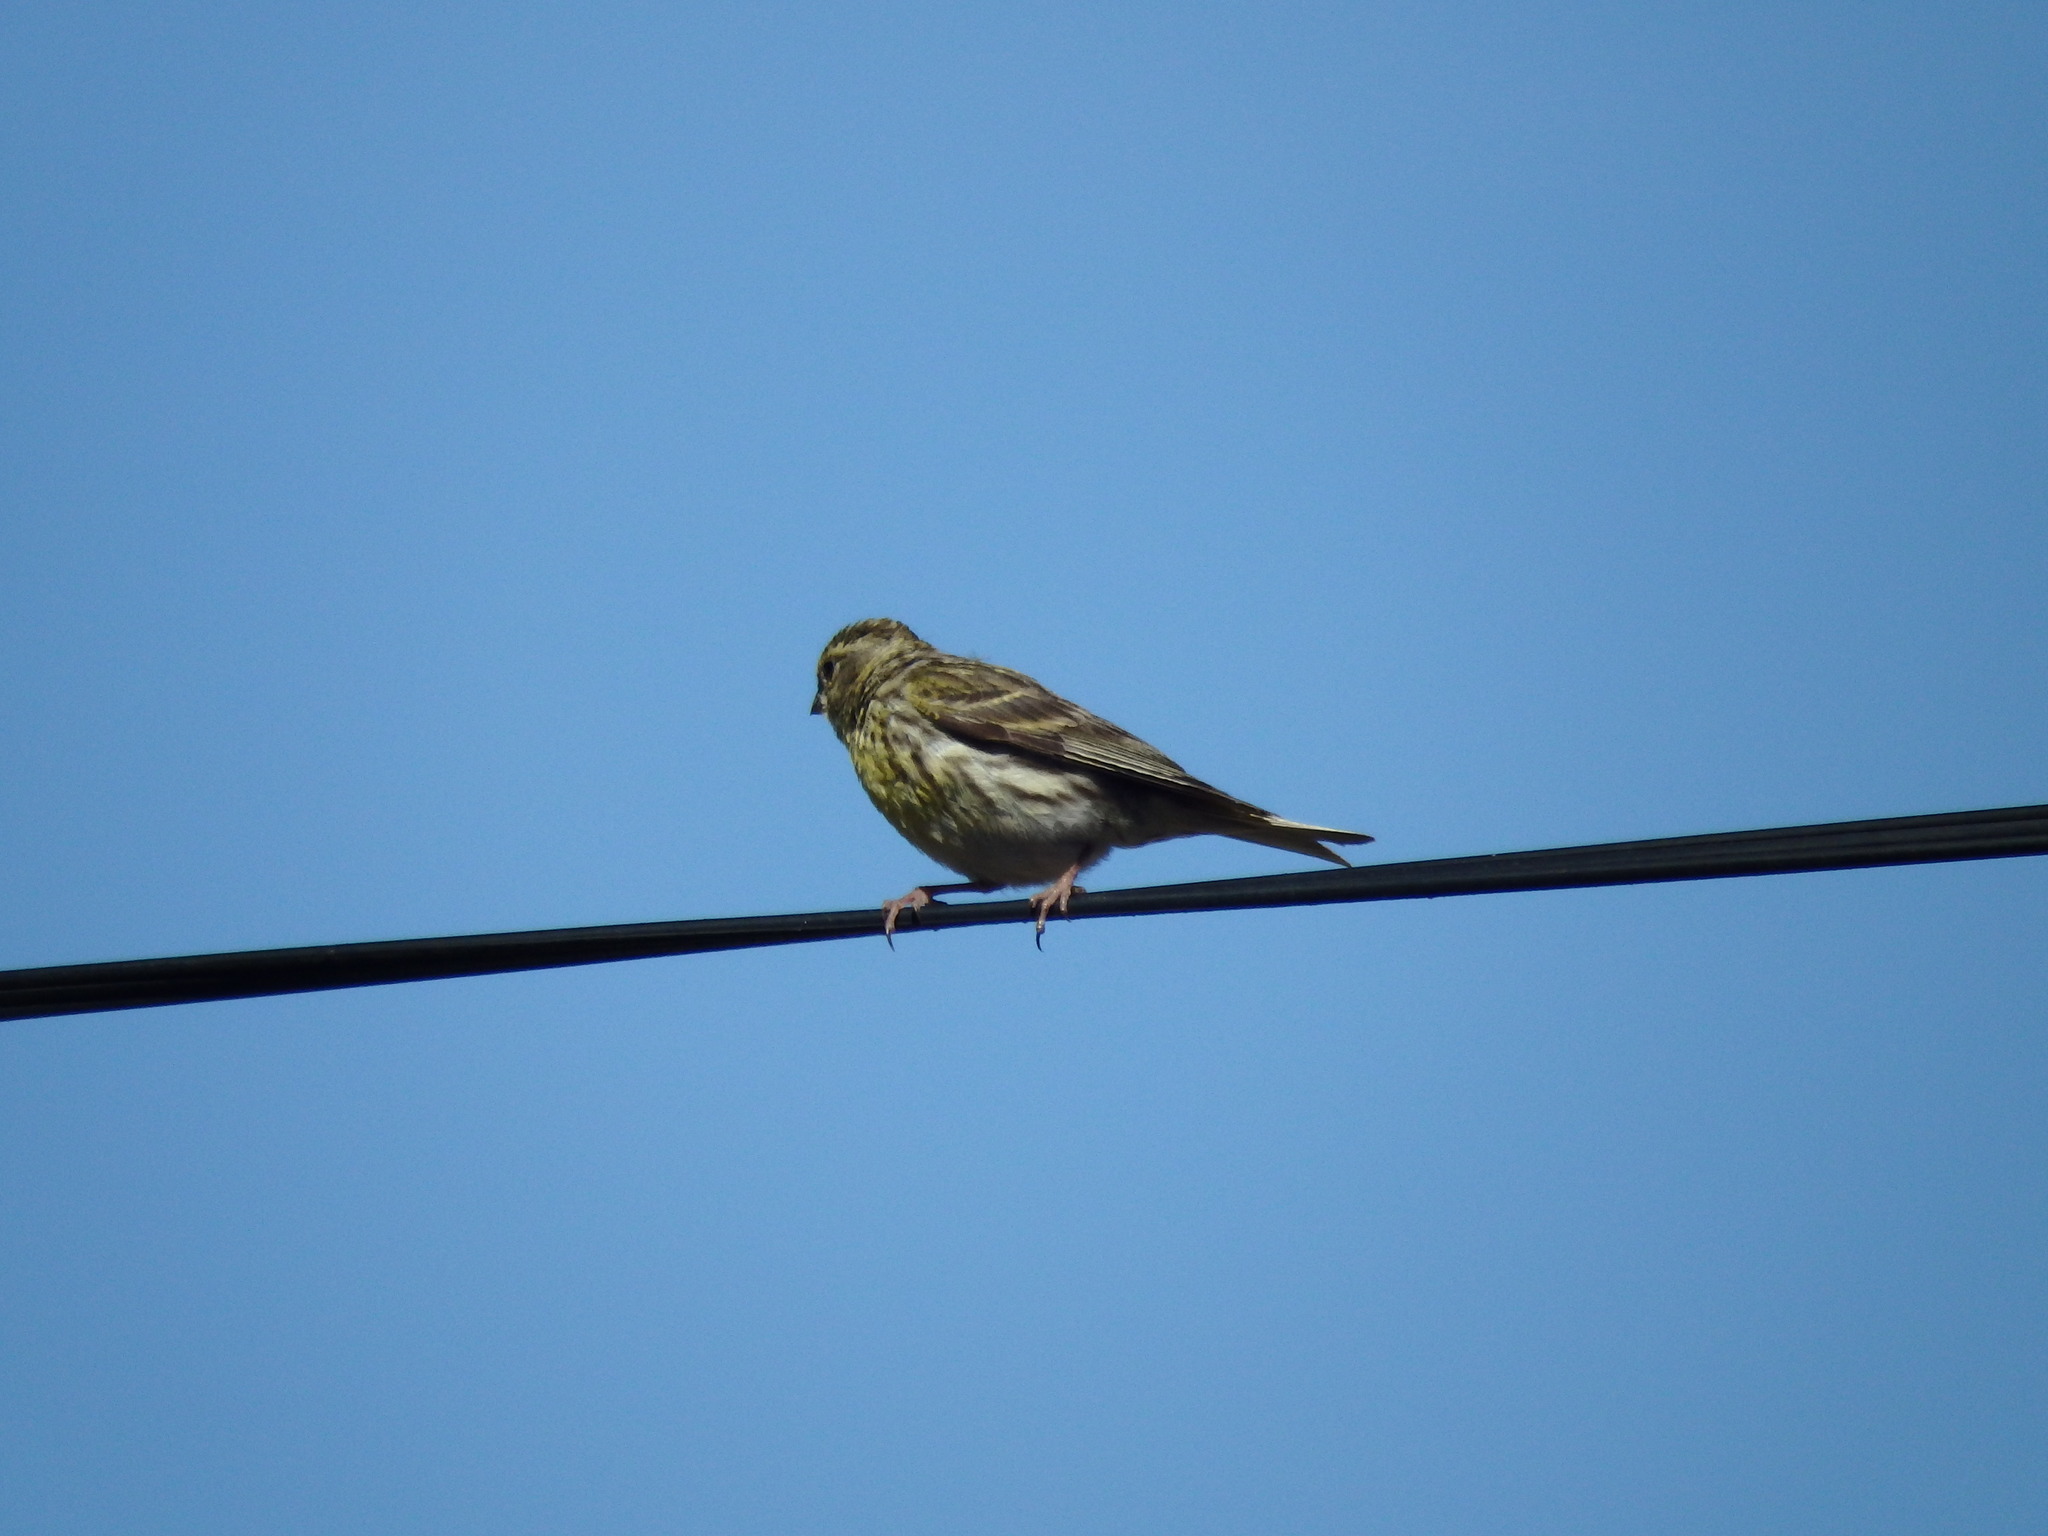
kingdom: Animalia
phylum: Chordata
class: Aves
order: Passeriformes
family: Fringillidae
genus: Serinus
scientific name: Serinus serinus
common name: European serin
